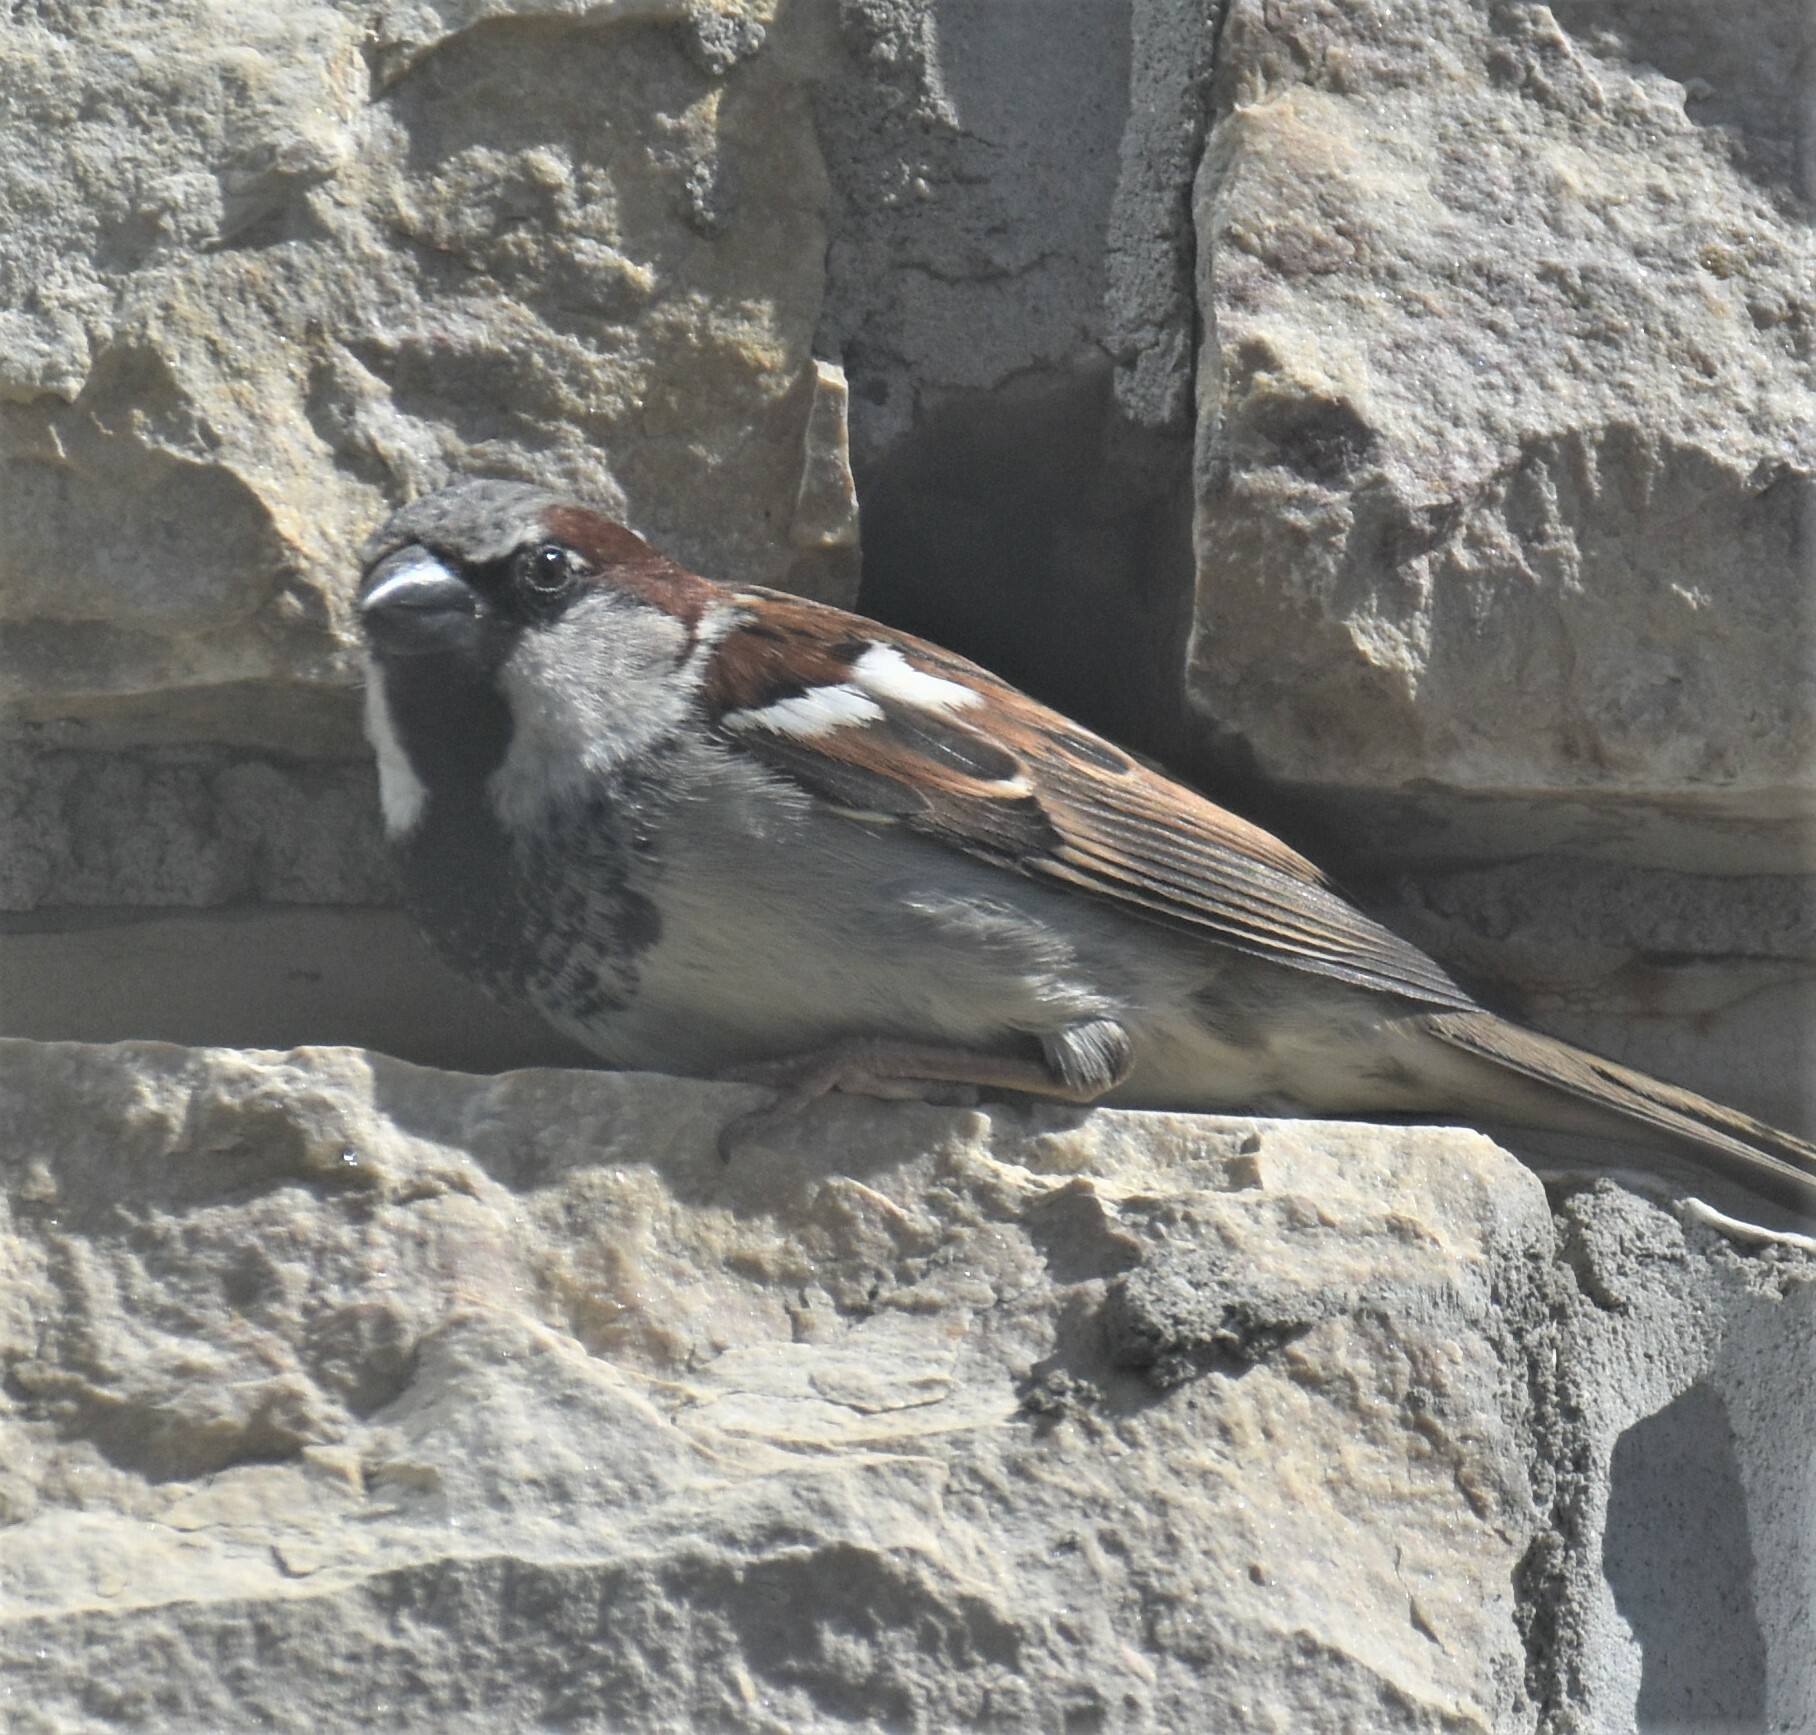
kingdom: Animalia
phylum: Chordata
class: Aves
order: Passeriformes
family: Passeridae
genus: Passer
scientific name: Passer domesticus
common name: House sparrow
